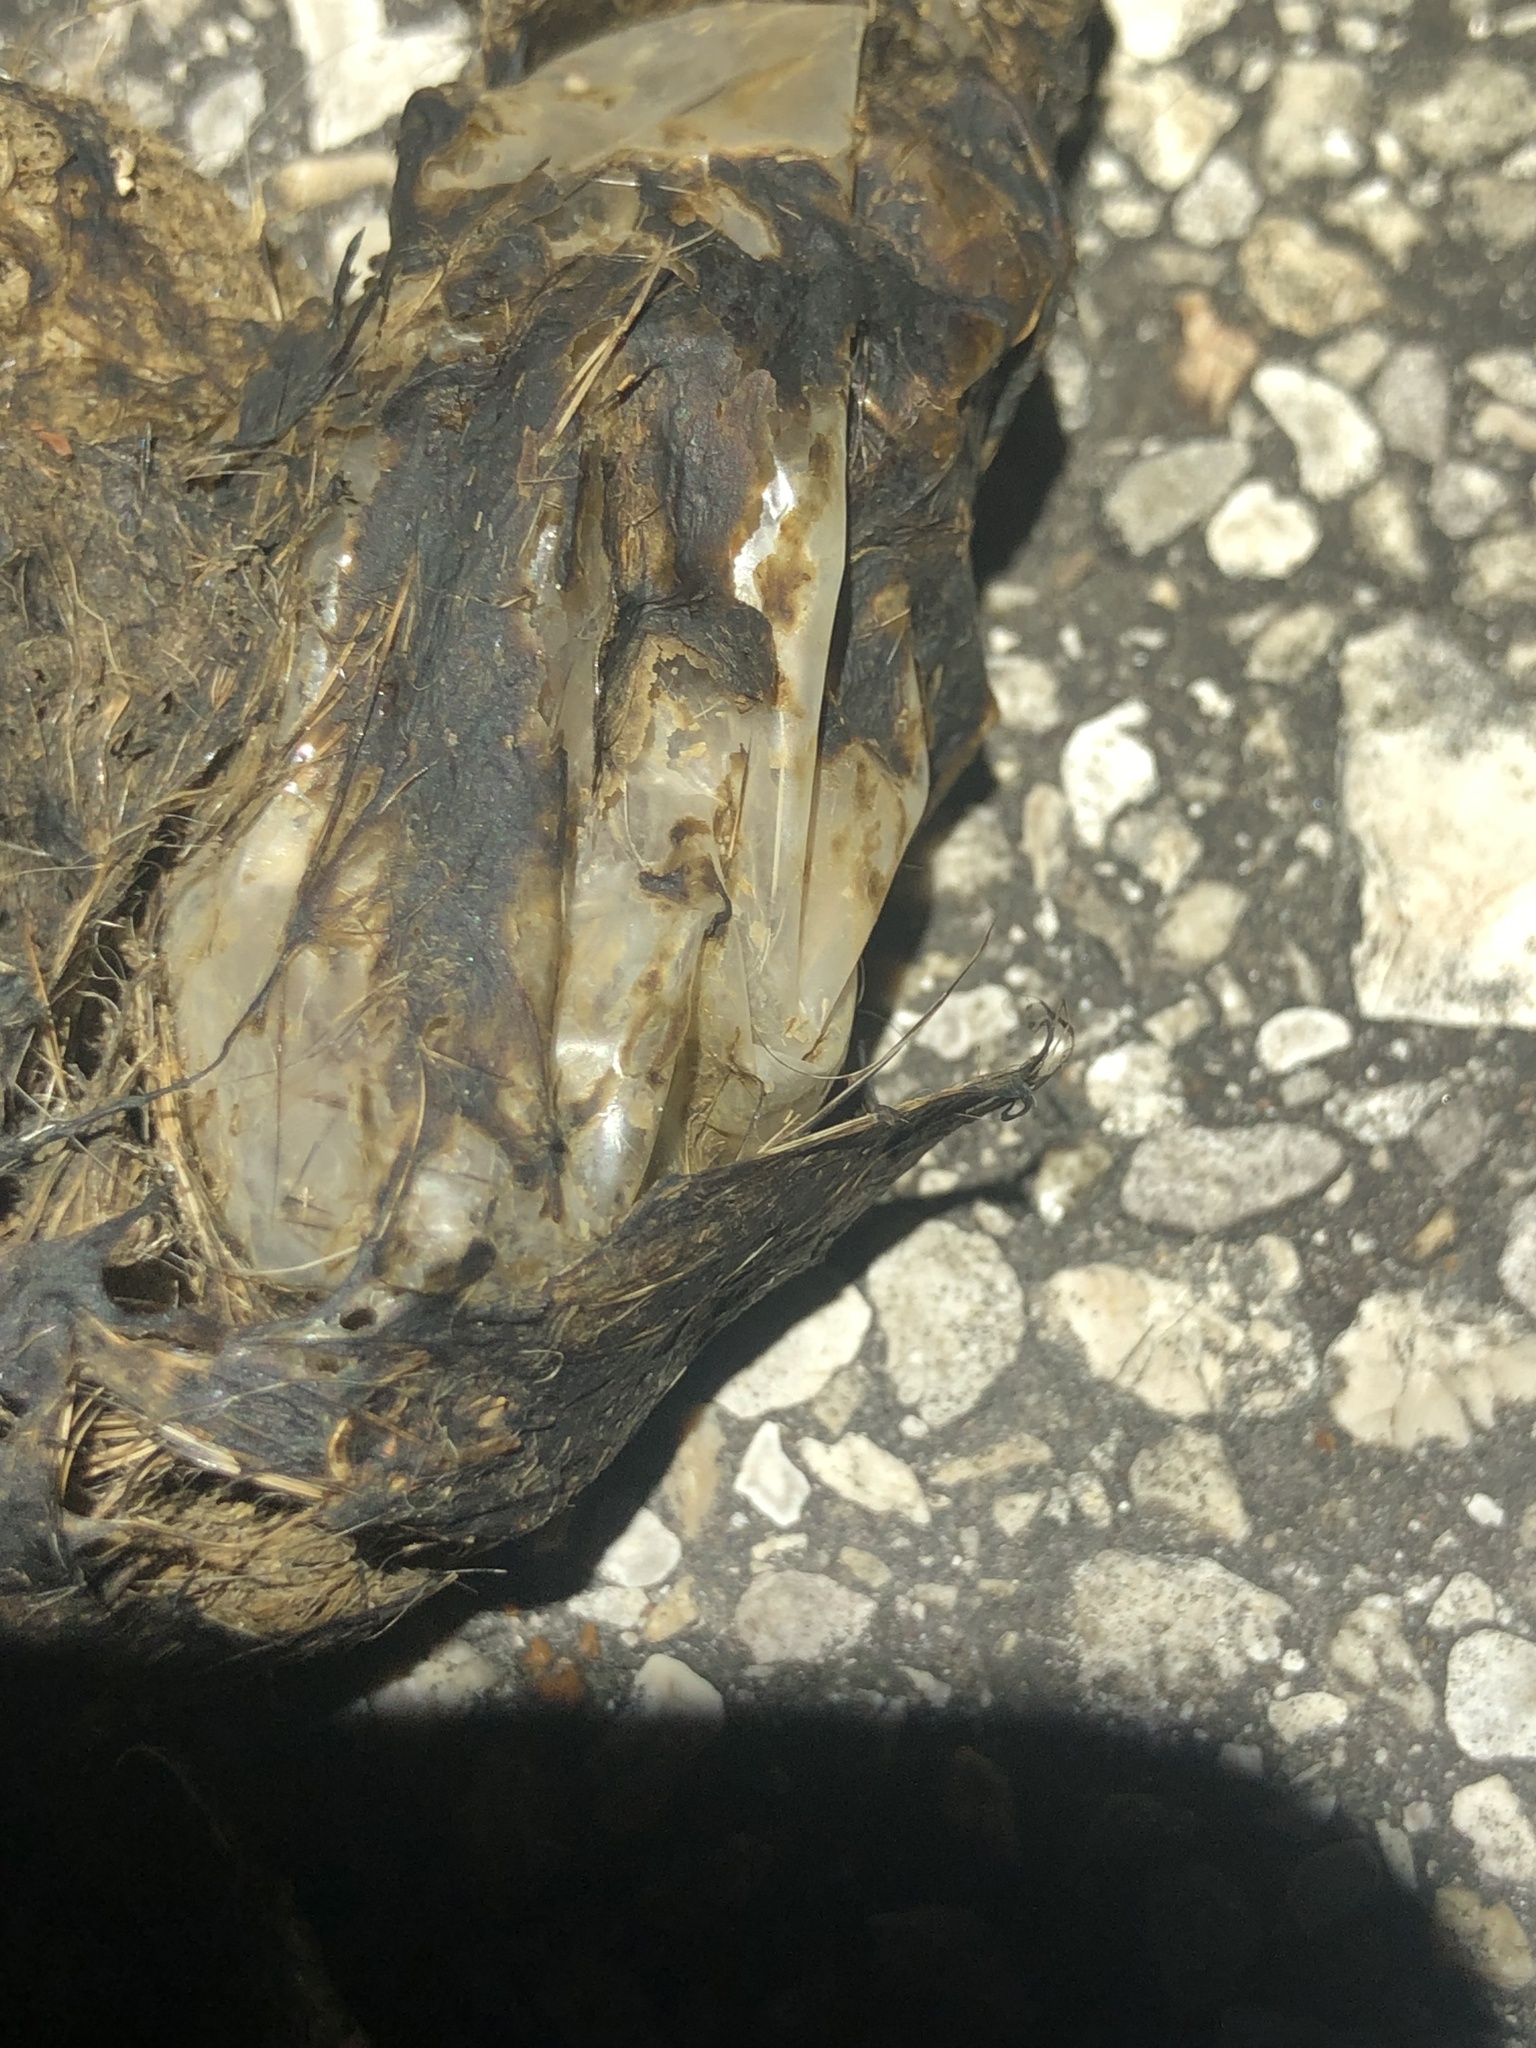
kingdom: Animalia
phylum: Chordata
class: Mammalia
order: Carnivora
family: Canidae
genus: Canis
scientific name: Canis latrans
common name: Coyote
